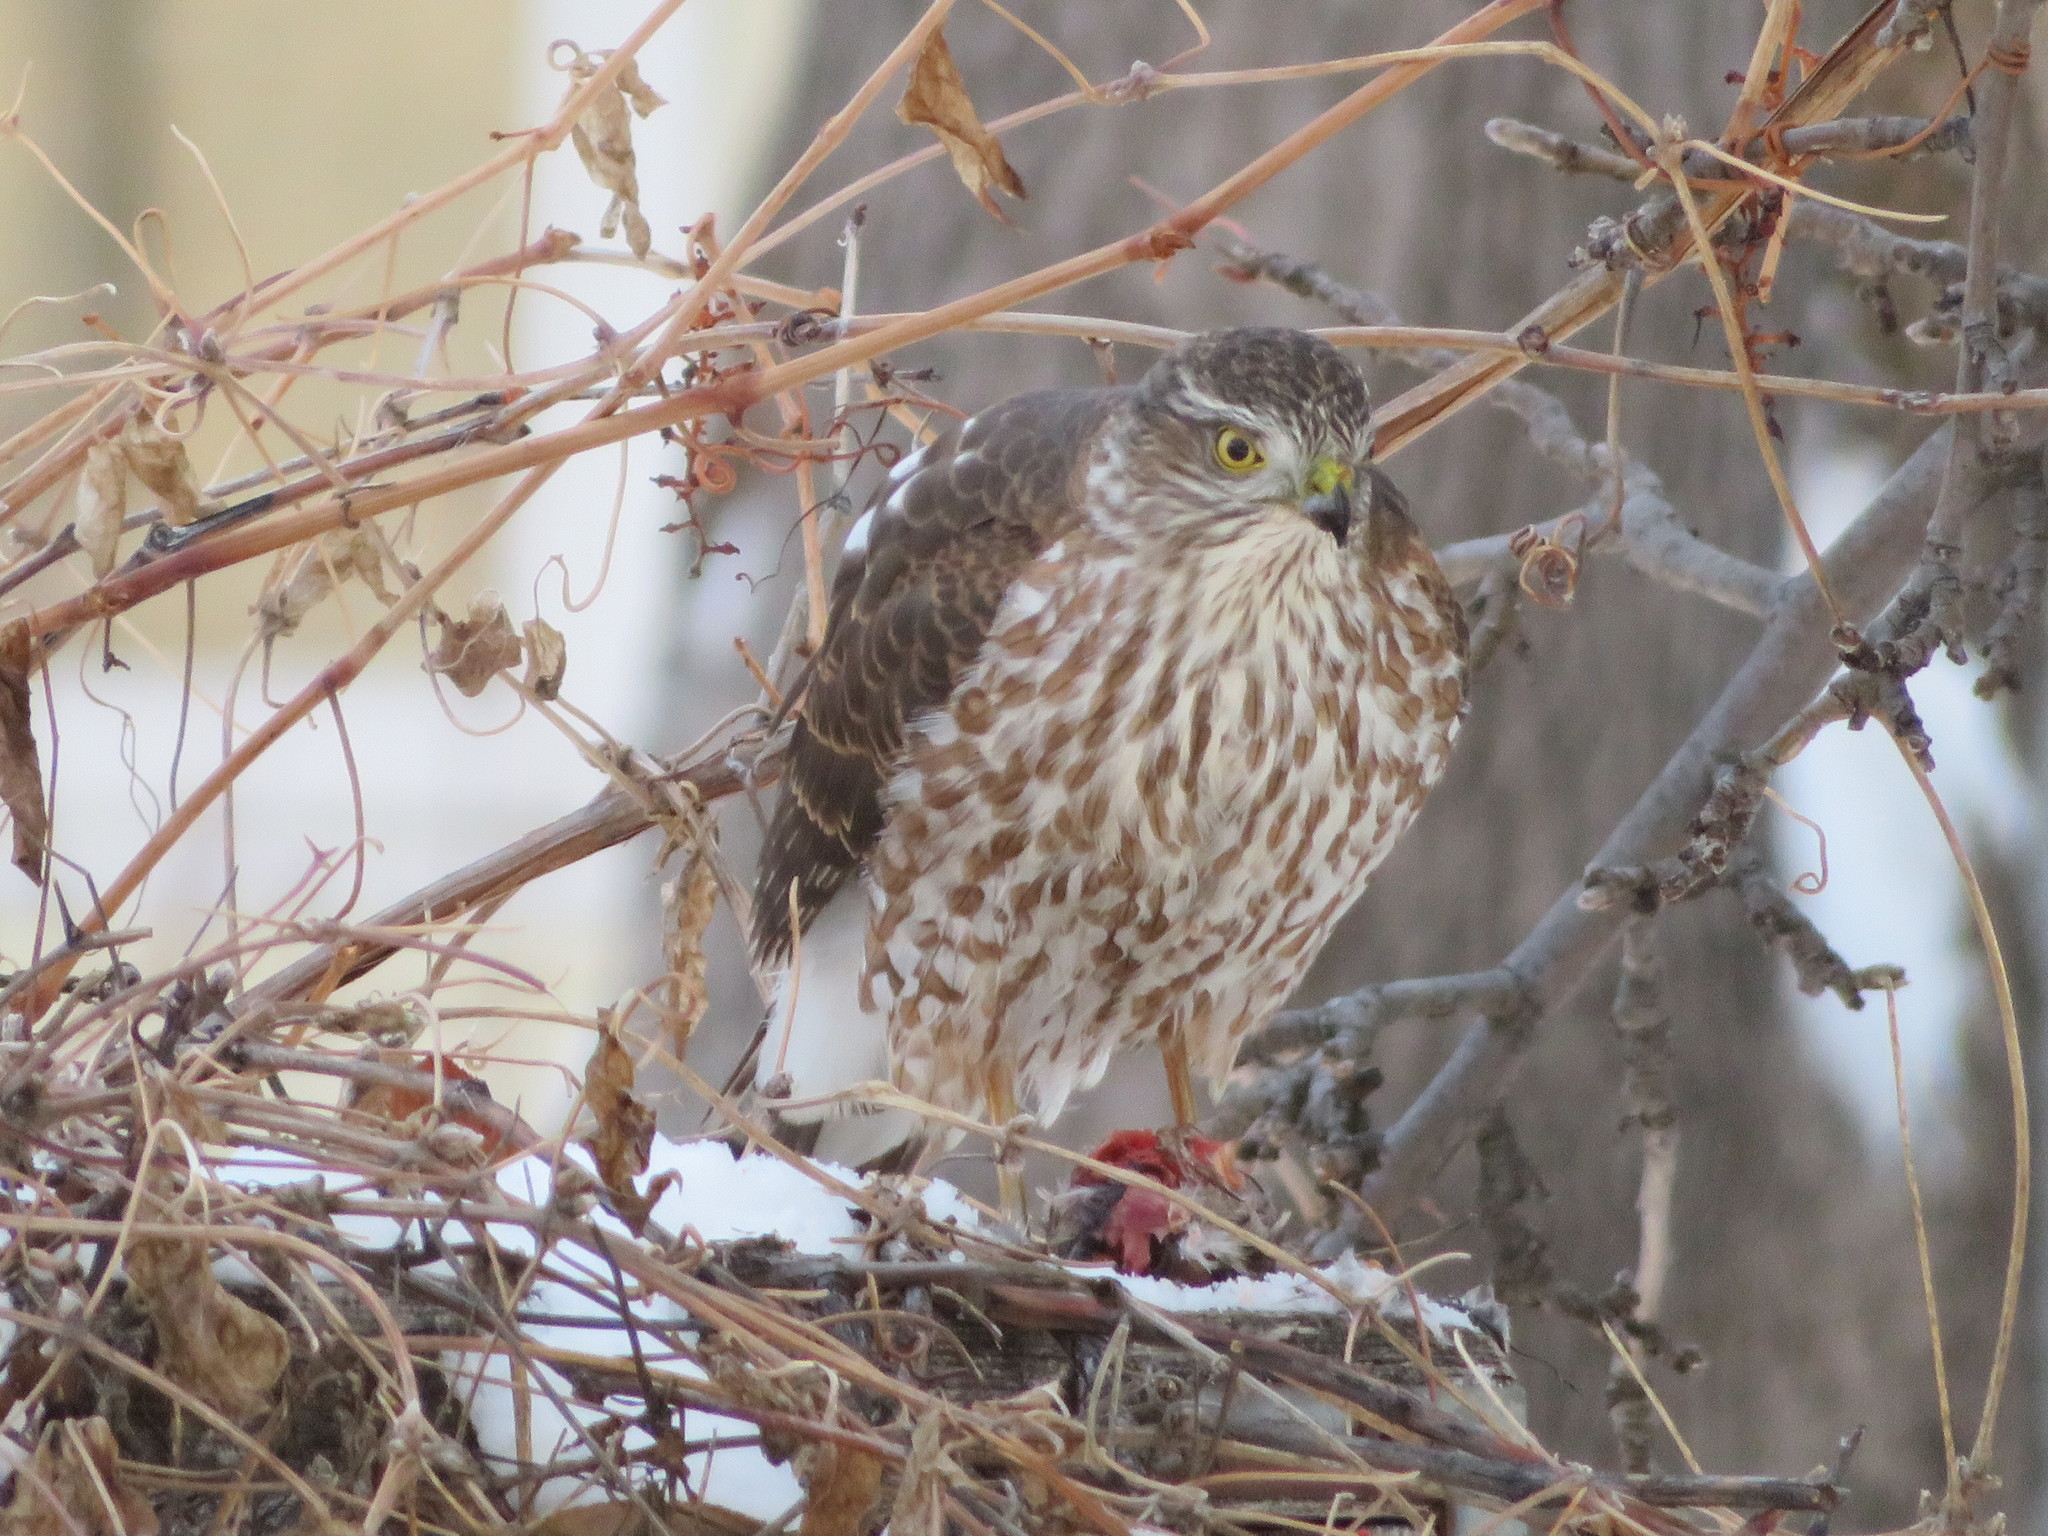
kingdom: Animalia
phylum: Chordata
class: Aves
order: Accipitriformes
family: Accipitridae
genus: Accipiter
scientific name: Accipiter striatus
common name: Sharp-shinned hawk
